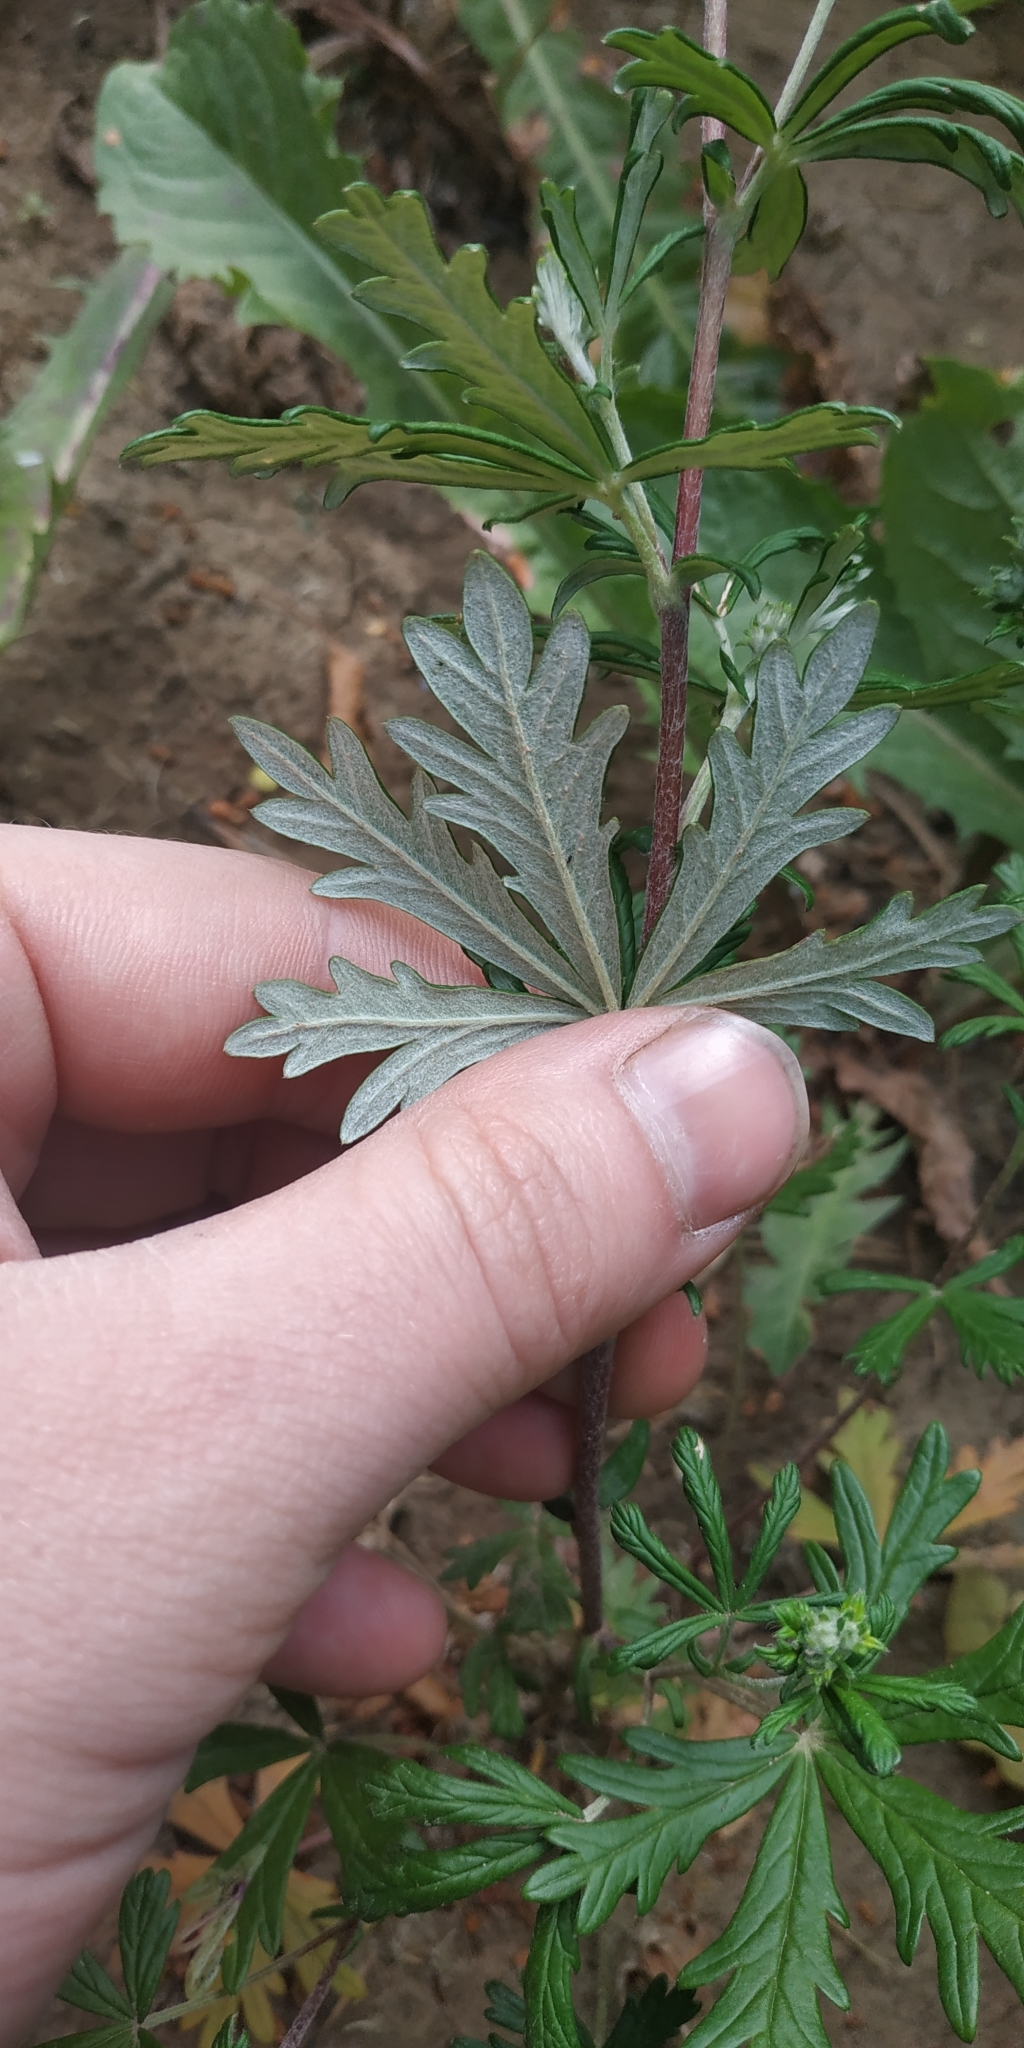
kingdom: Plantae
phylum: Tracheophyta
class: Magnoliopsida
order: Rosales
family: Rosaceae
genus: Potentilla
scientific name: Potentilla argentea
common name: Hoary cinquefoil
